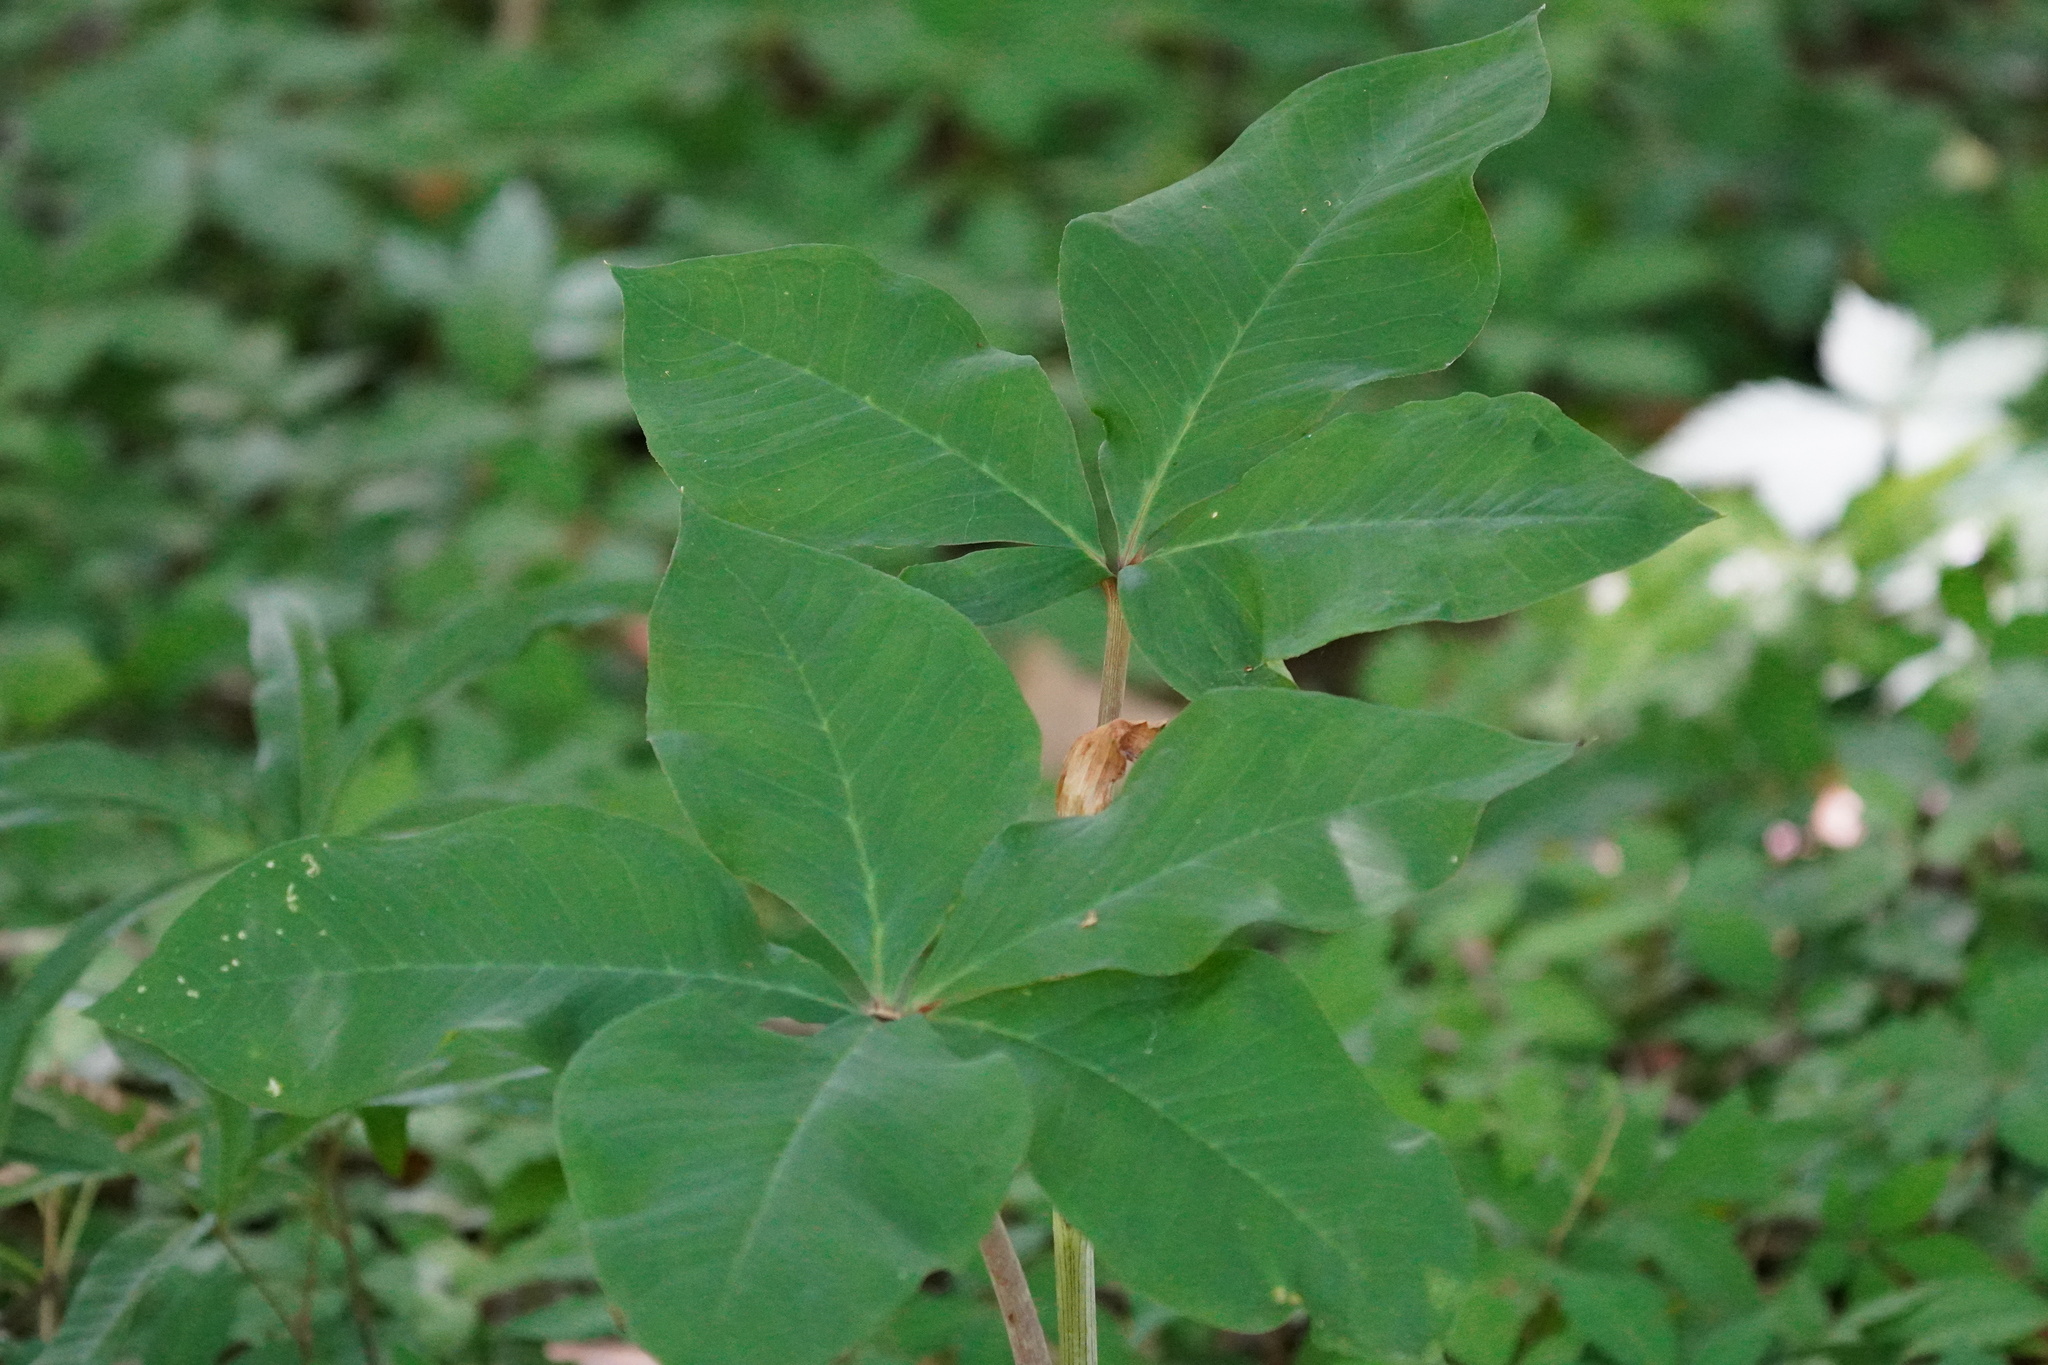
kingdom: Plantae
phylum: Tracheophyta
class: Liliopsida
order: Alismatales
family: Araceae
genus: Arisaema
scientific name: Arisaema quinatum
